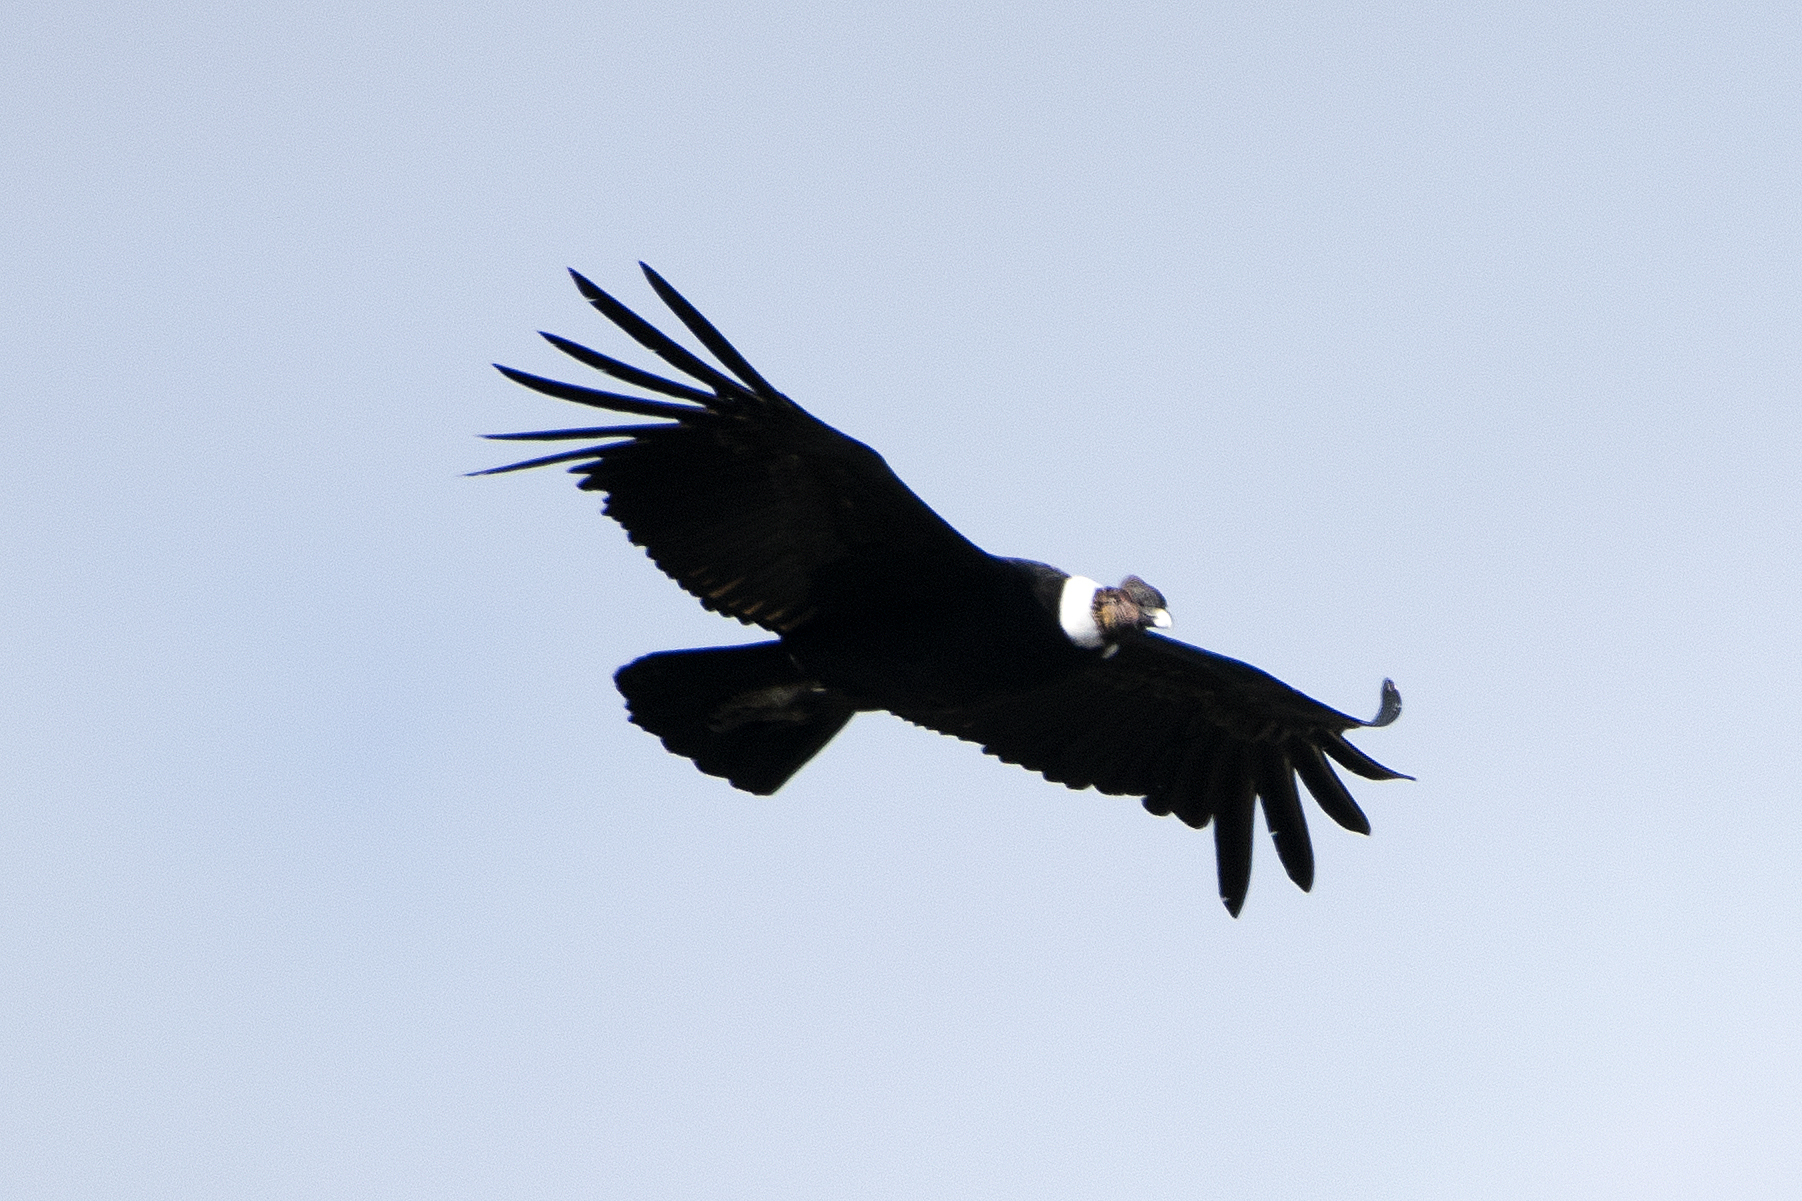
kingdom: Animalia
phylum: Chordata
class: Aves
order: Accipitriformes
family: Cathartidae
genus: Vultur
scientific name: Vultur gryphus
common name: Andean condor
